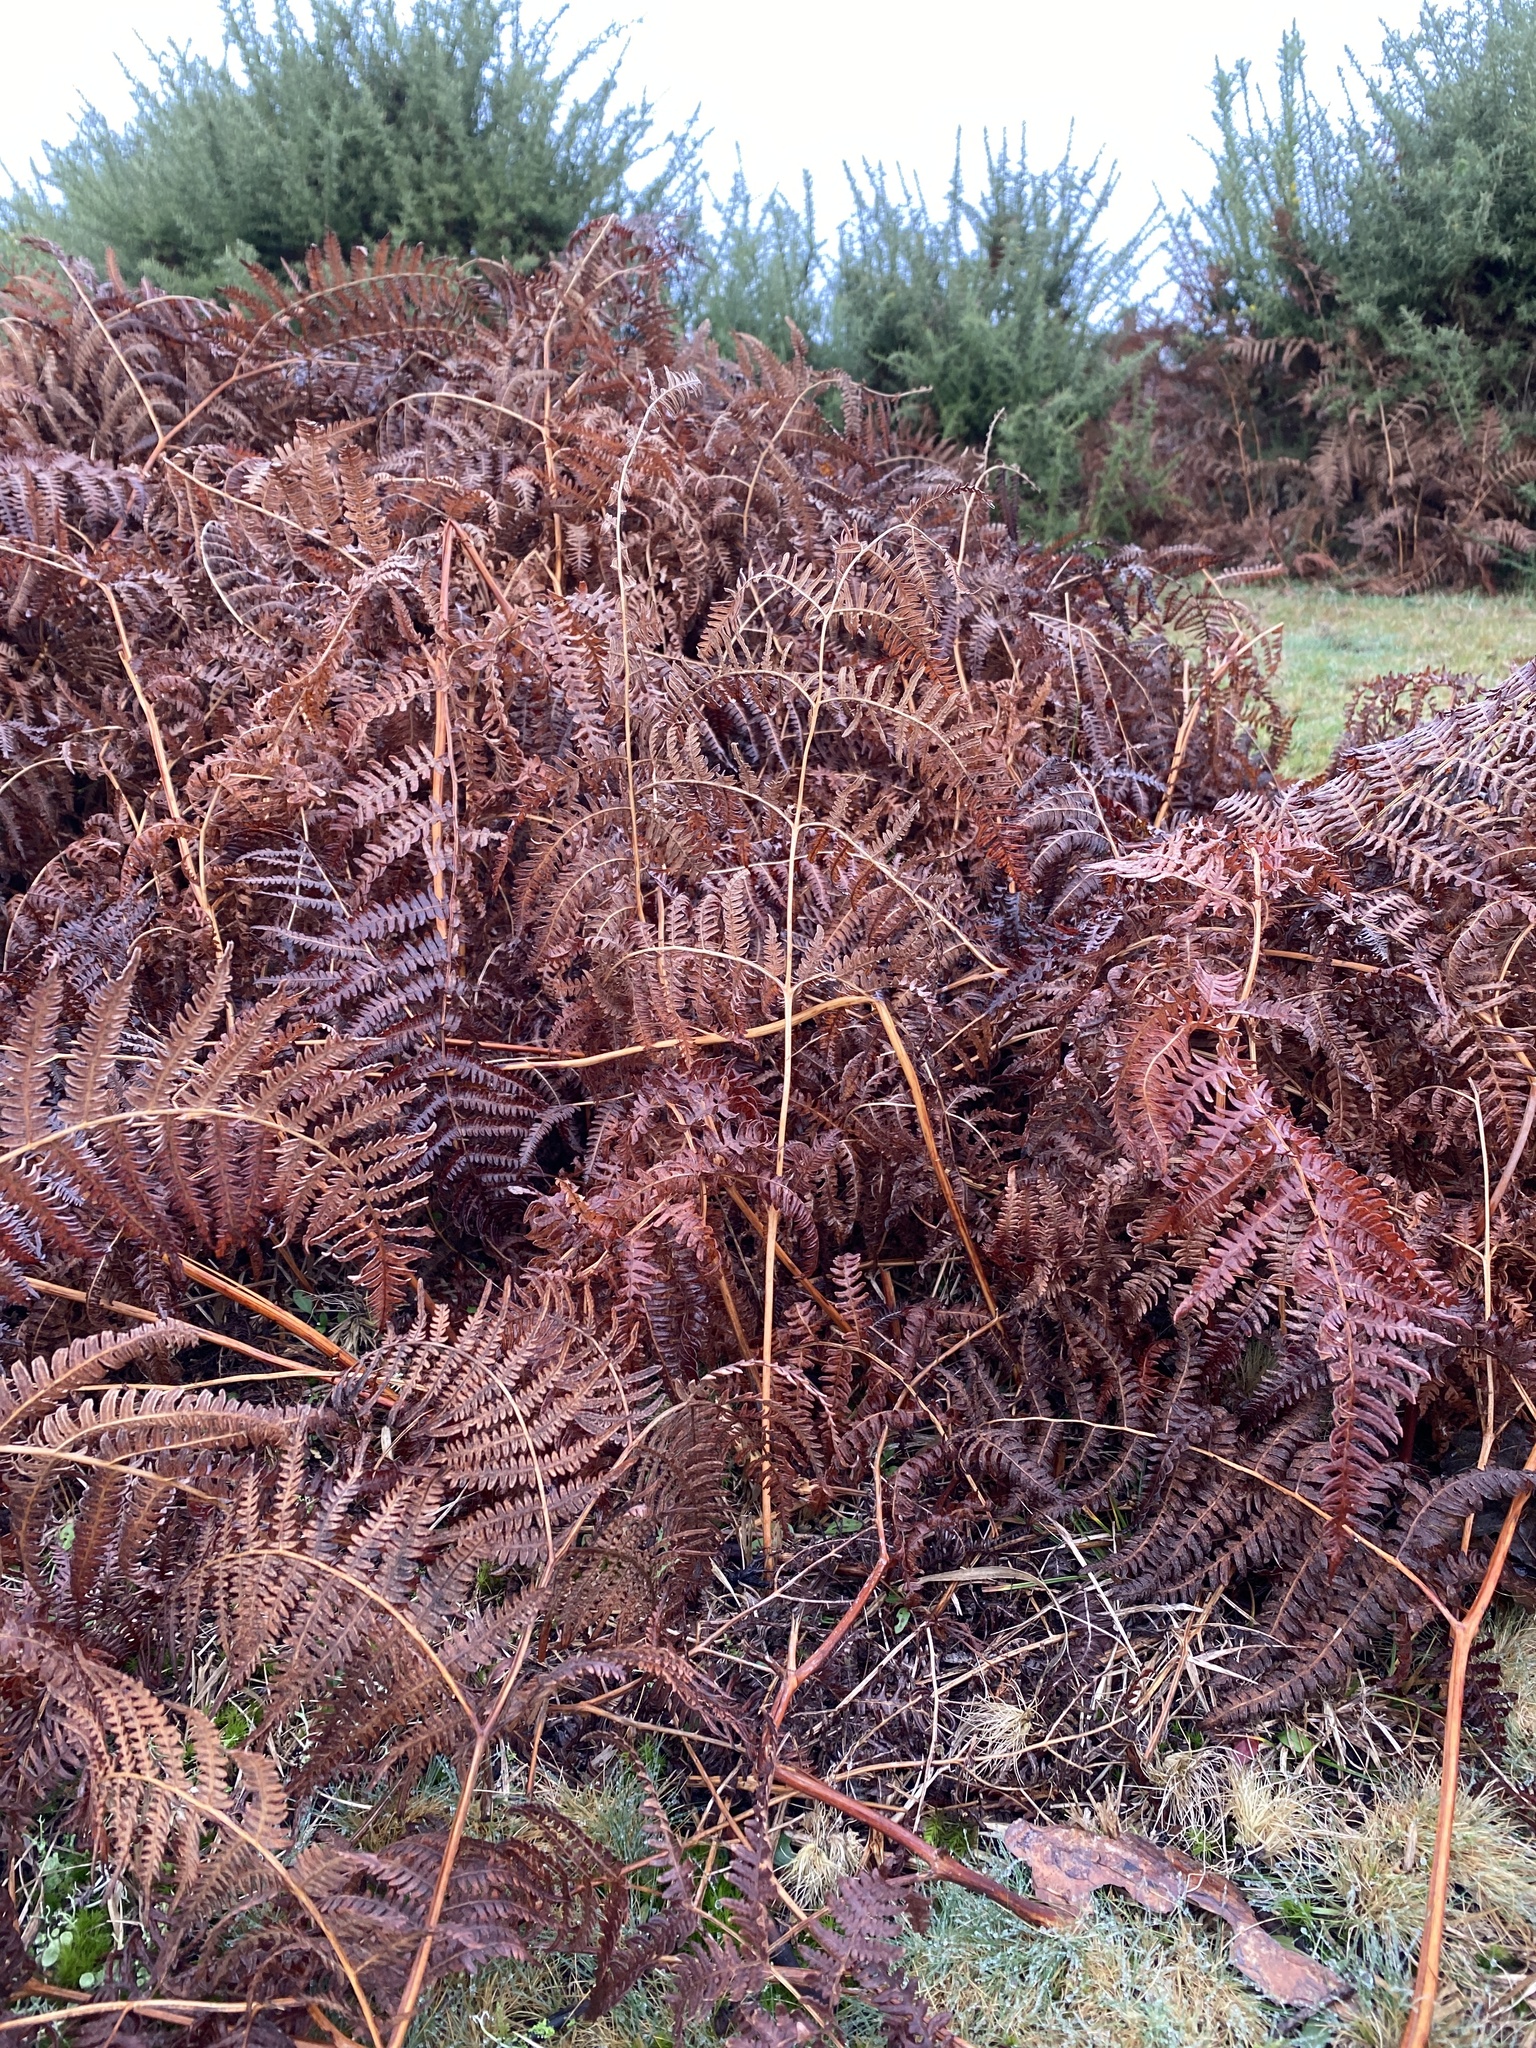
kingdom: Plantae
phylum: Tracheophyta
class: Polypodiopsida
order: Polypodiales
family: Dennstaedtiaceae
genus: Pteridium
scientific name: Pteridium aquilinum
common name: Bracken
